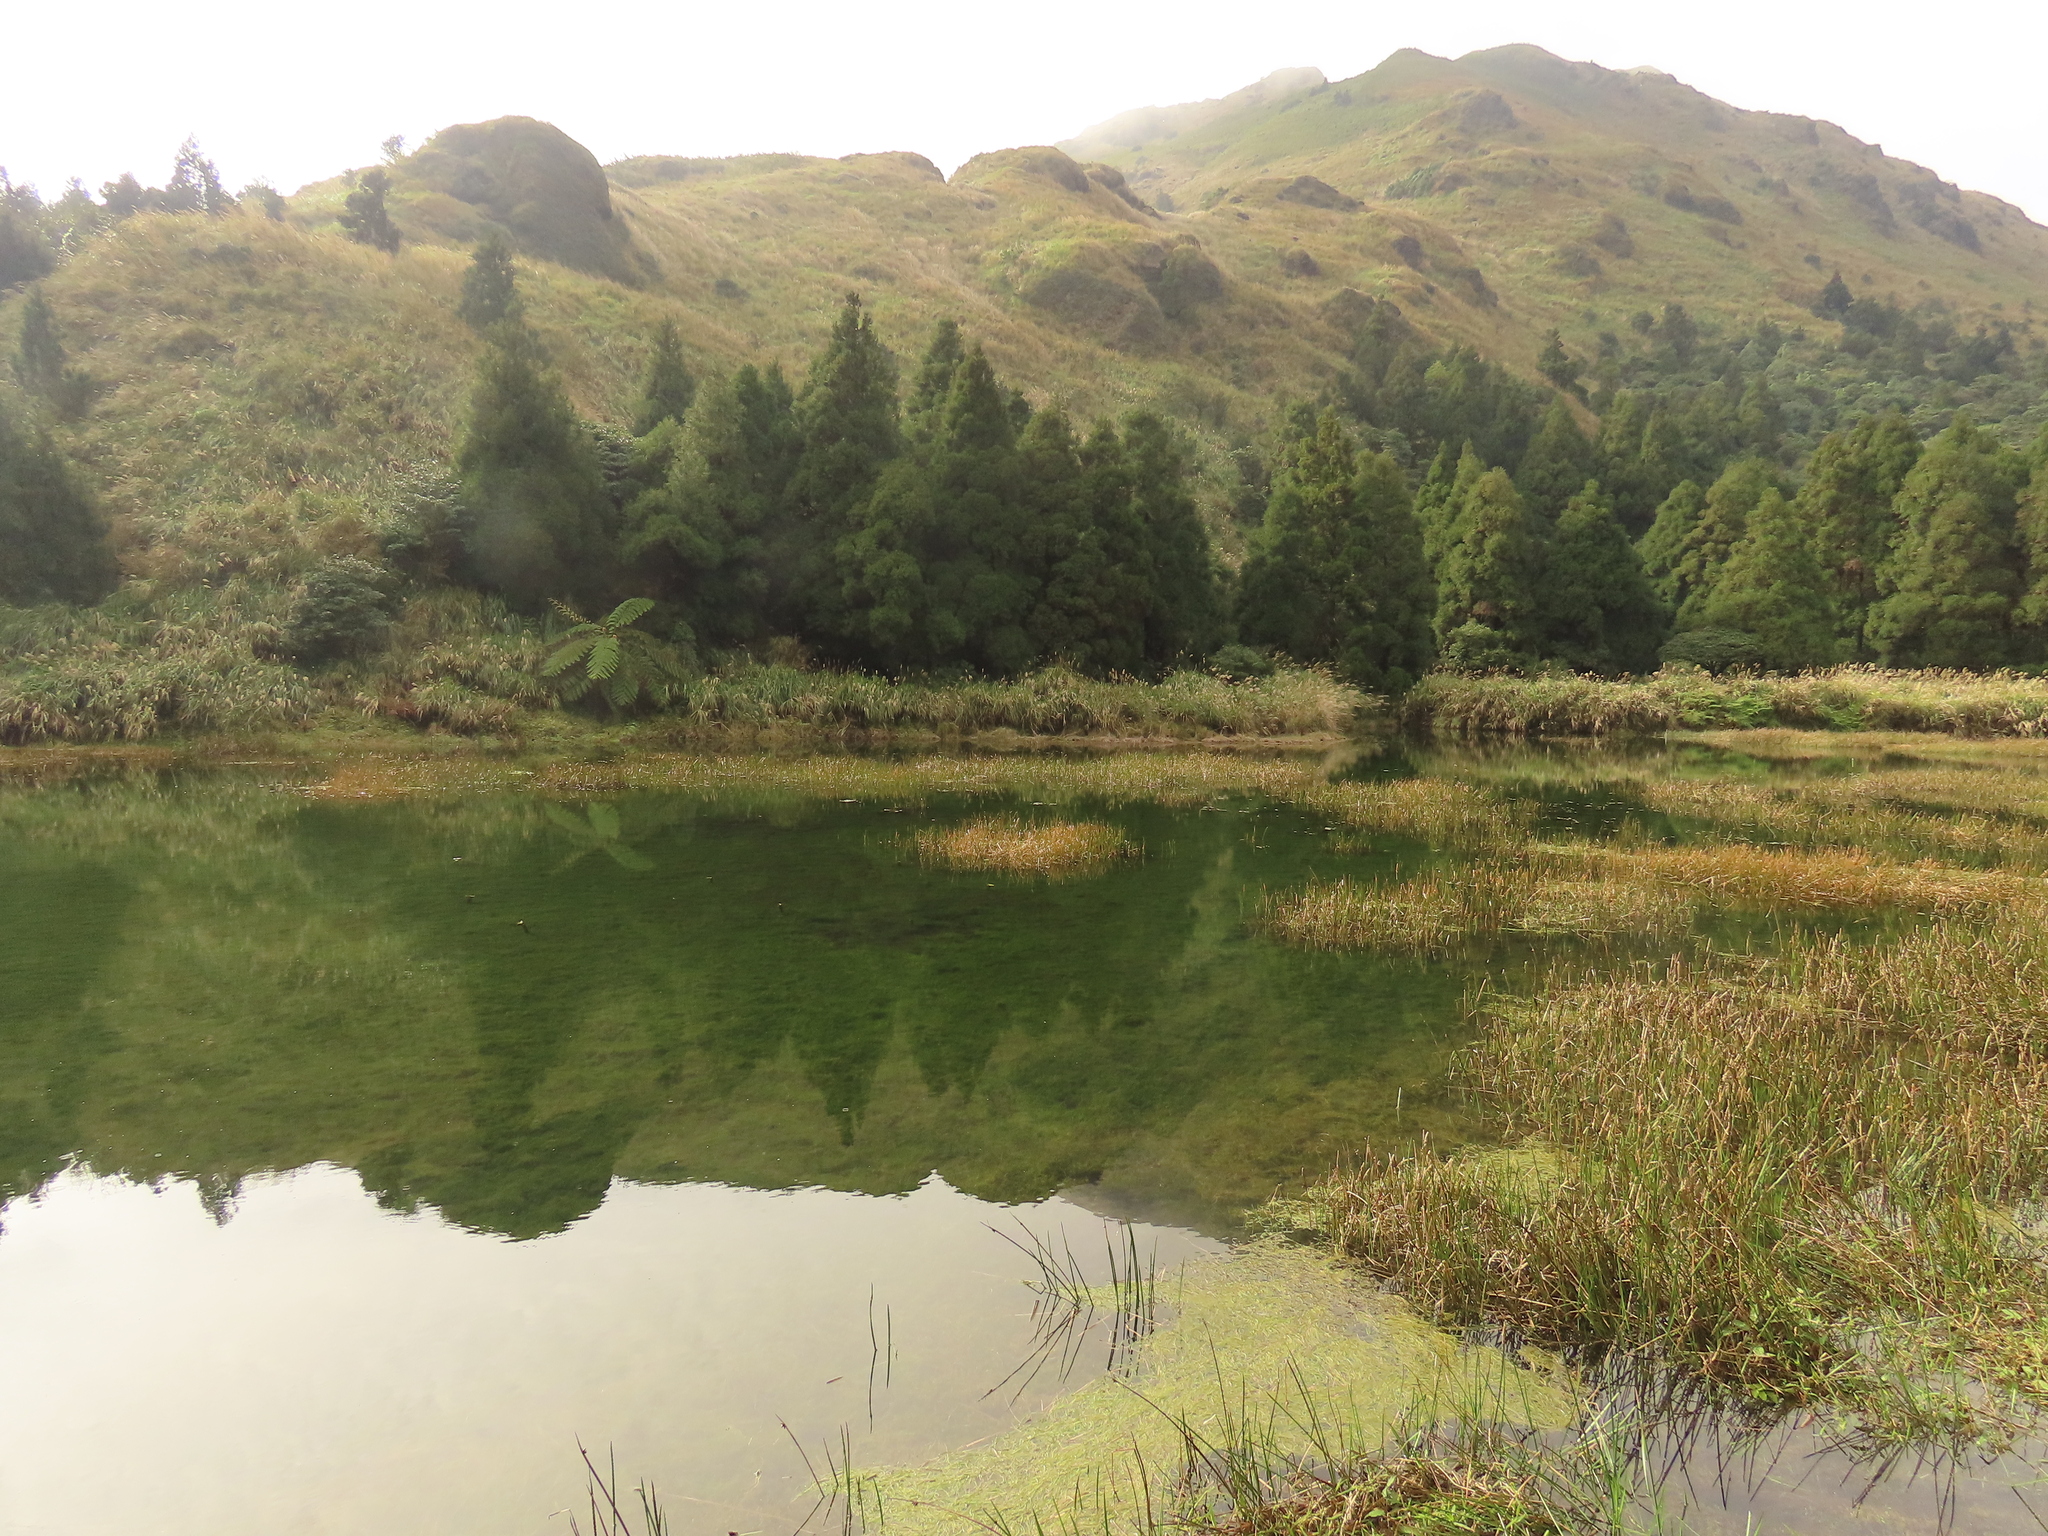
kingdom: Plantae
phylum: Tracheophyta
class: Liliopsida
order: Poales
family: Cyperaceae
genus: Schoenoplectiella
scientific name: Schoenoplectiella mucronata
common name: Bog bulrush
